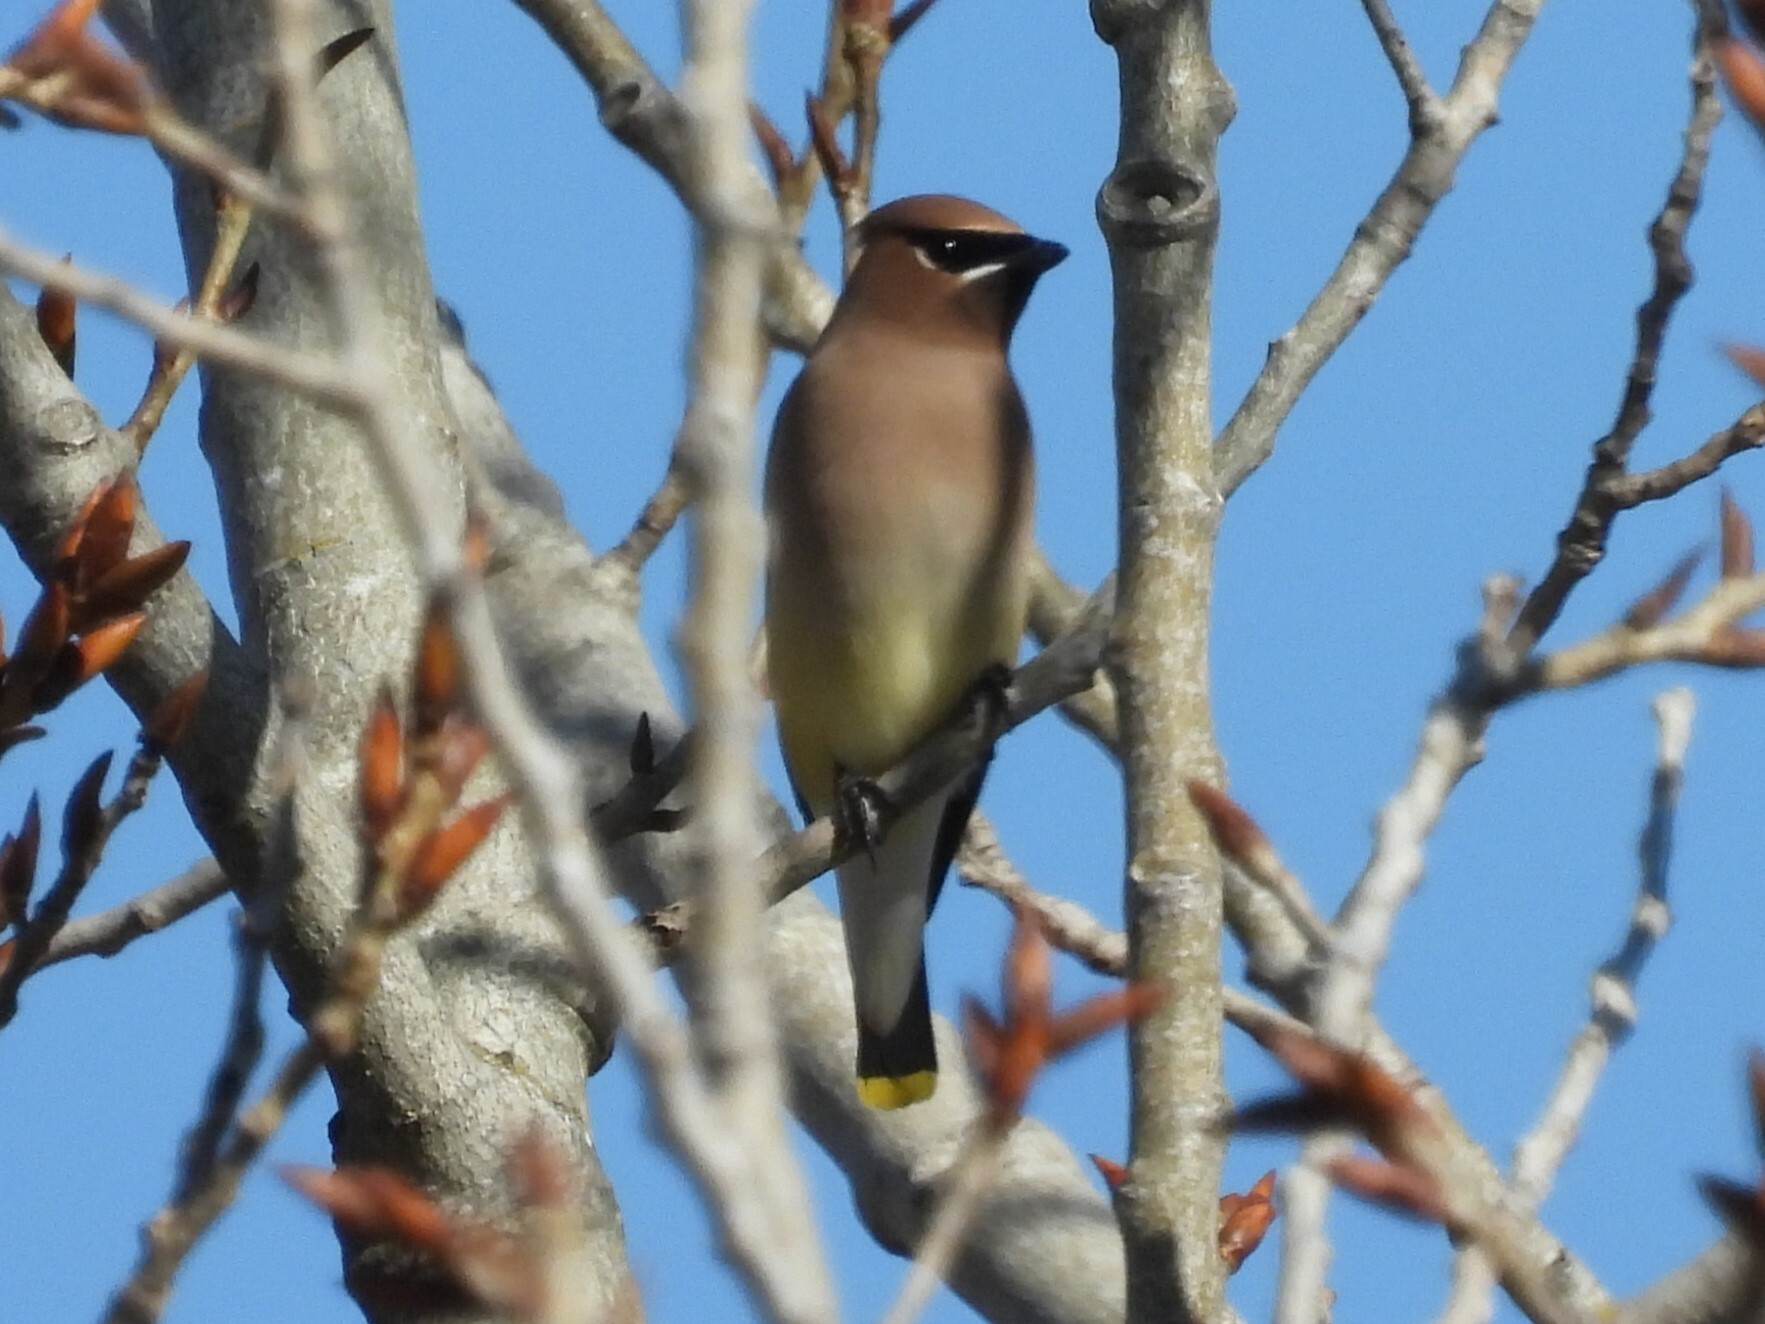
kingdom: Animalia
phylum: Chordata
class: Aves
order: Passeriformes
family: Bombycillidae
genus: Bombycilla
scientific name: Bombycilla cedrorum
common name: Cedar waxwing
